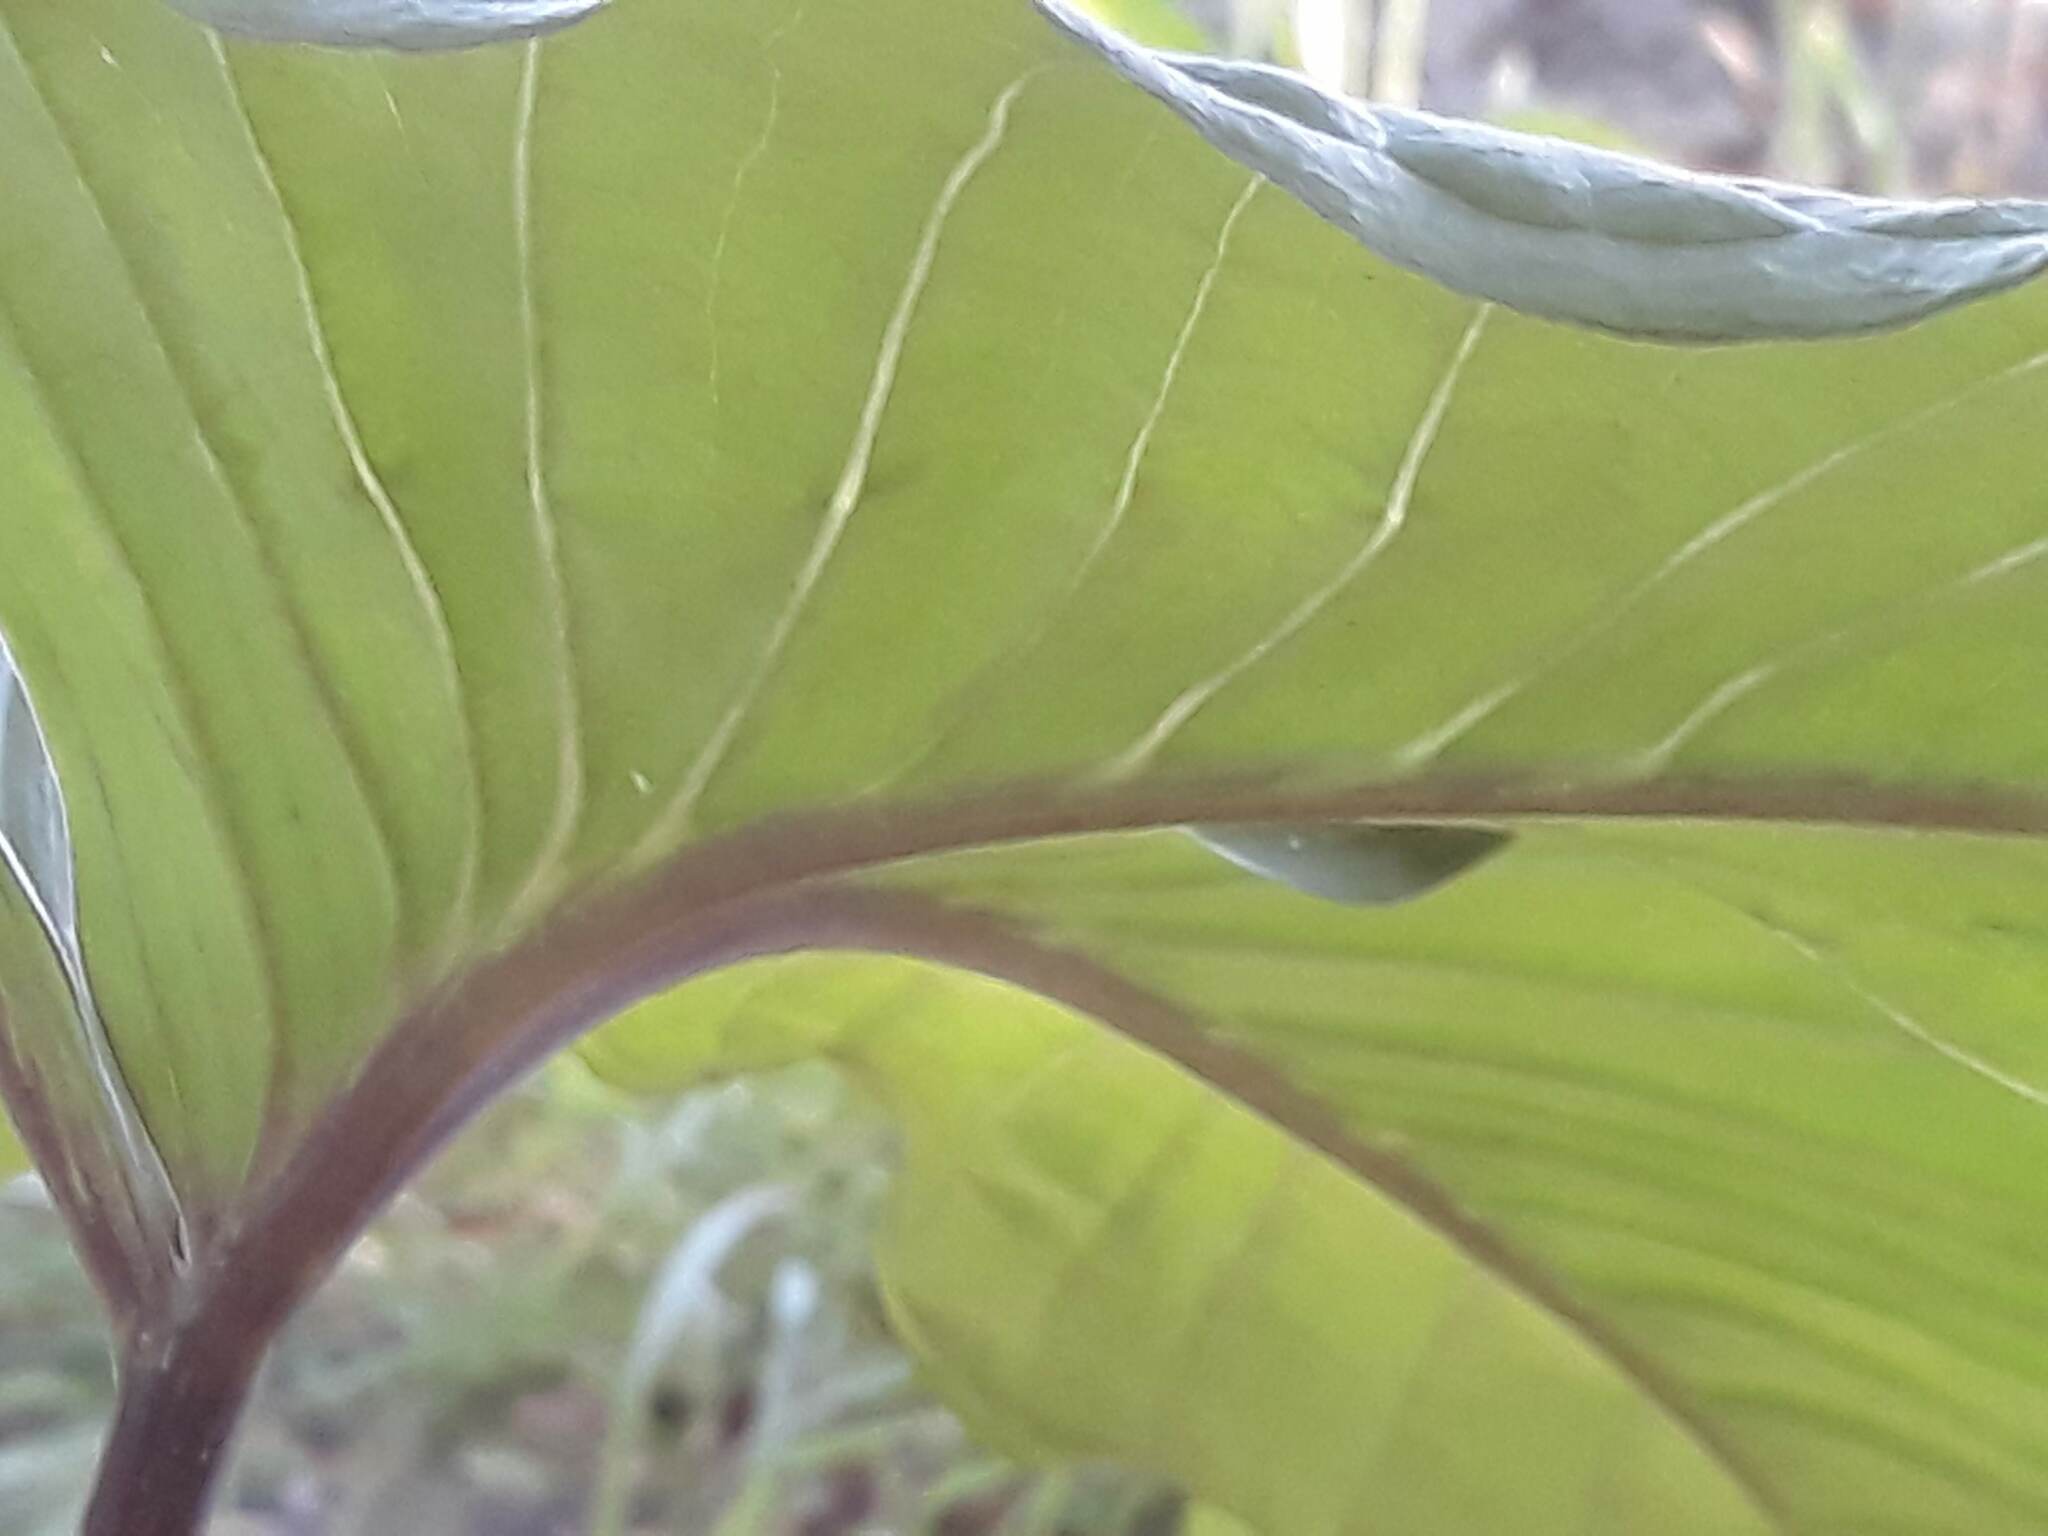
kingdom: Plantae
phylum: Tracheophyta
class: Liliopsida
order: Alismatales
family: Araceae
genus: Arisaema
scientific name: Arisaema triphyllum
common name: Jack-in-the-pulpit
